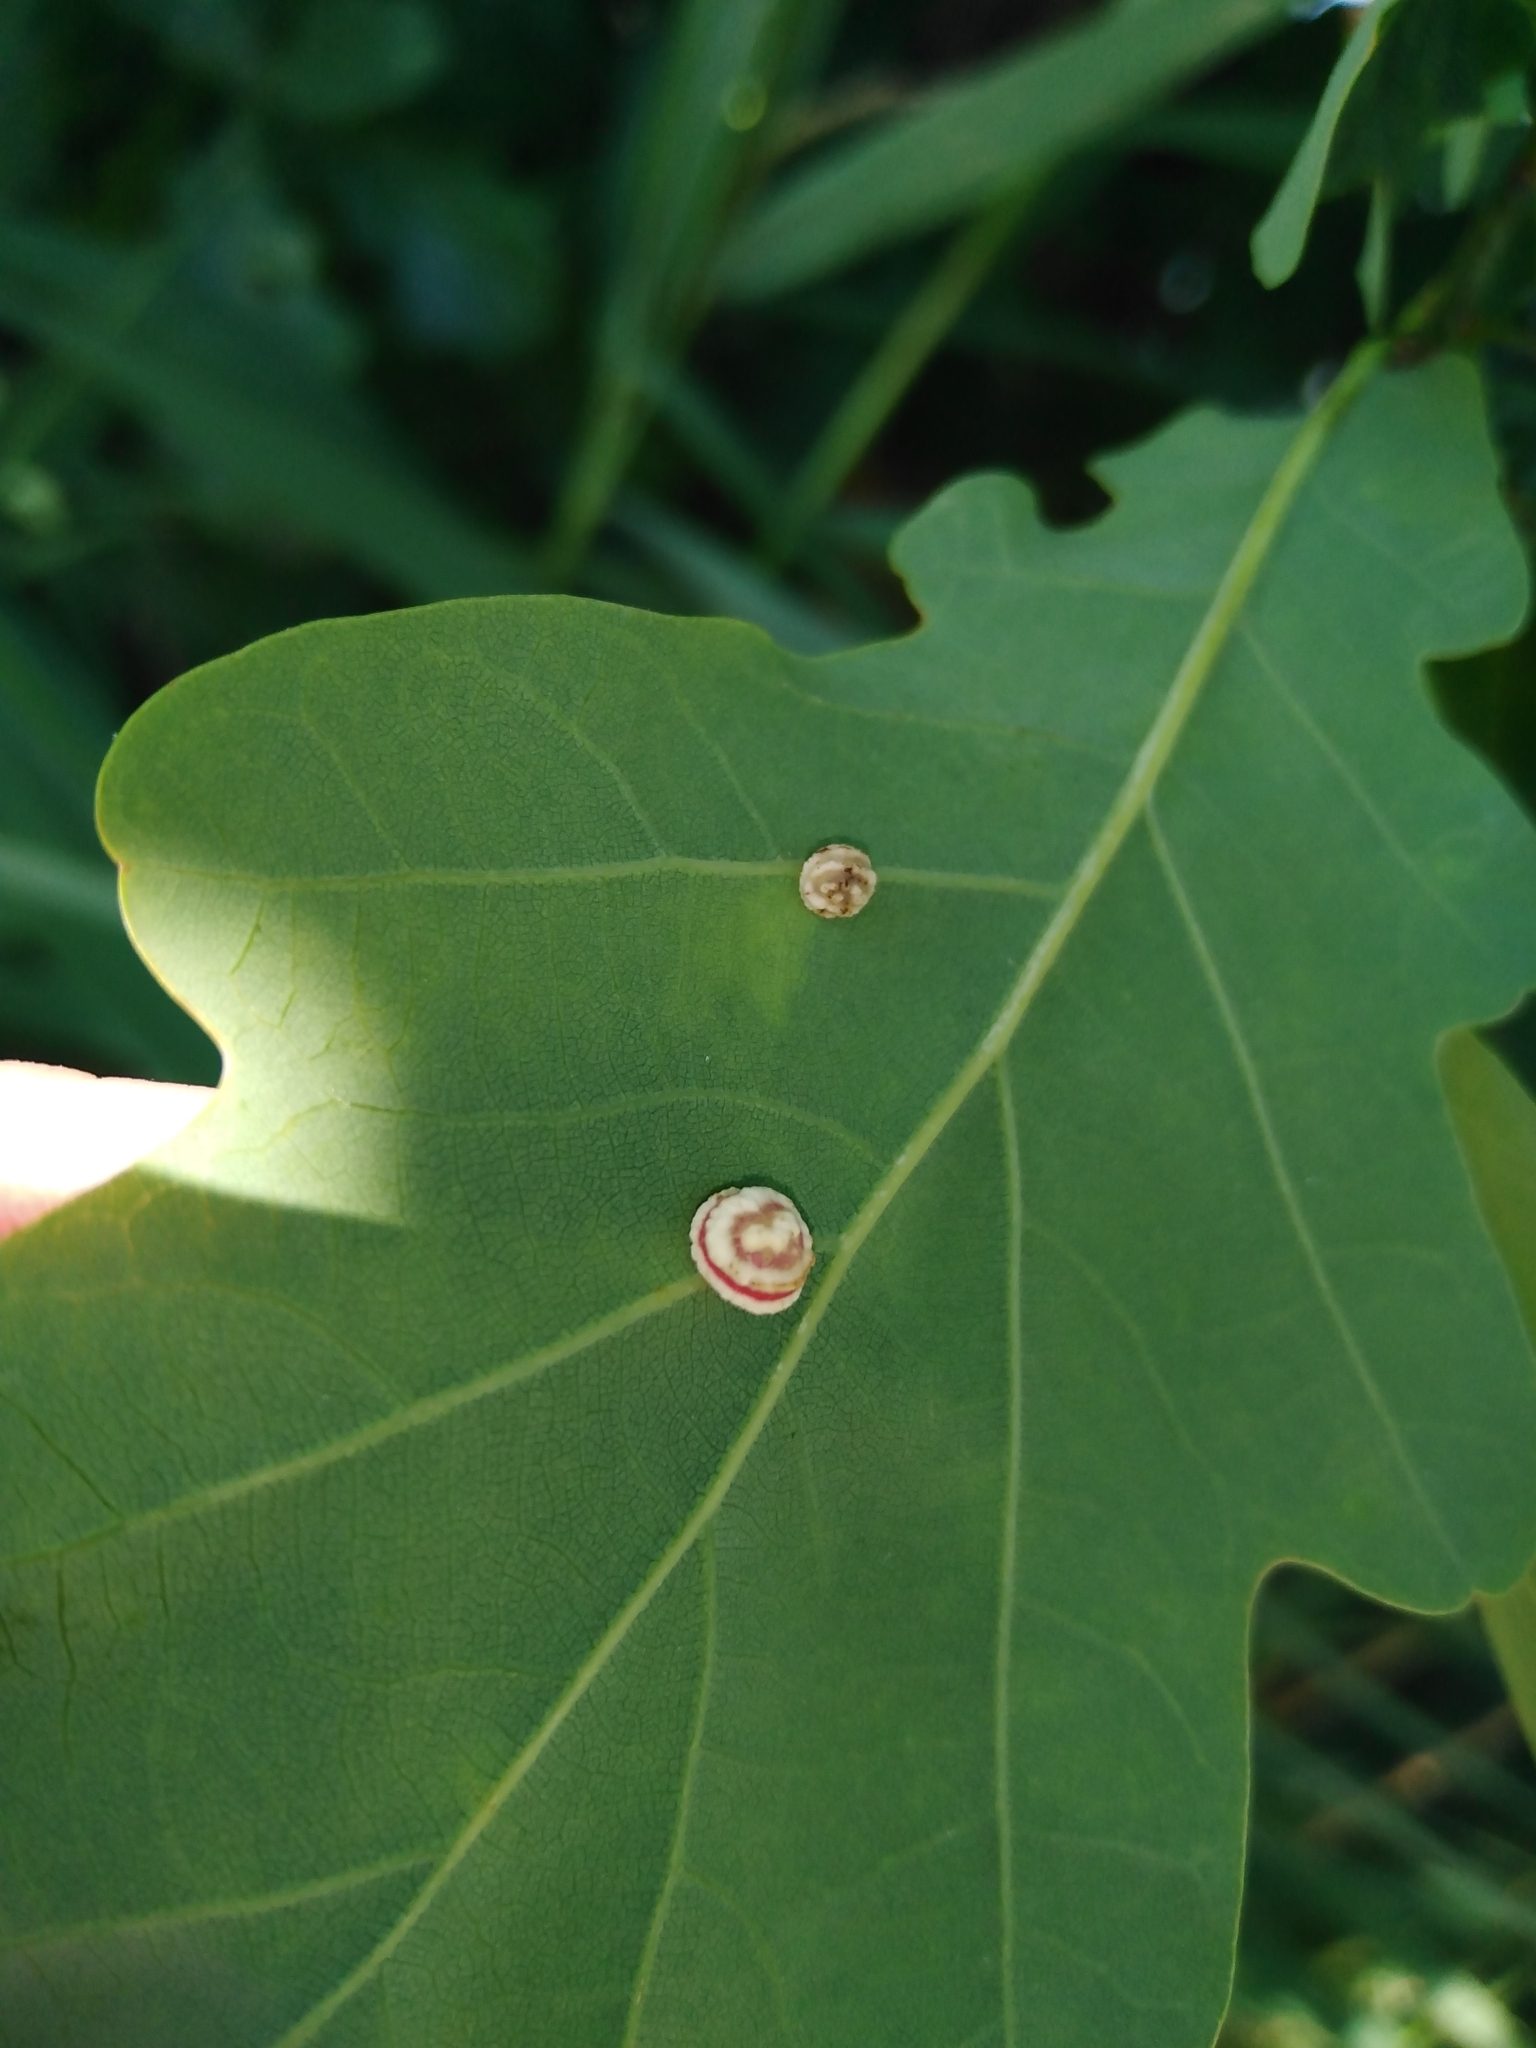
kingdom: Animalia
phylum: Arthropoda
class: Insecta
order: Hymenoptera
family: Cynipidae
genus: Cynips
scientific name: Cynips longiventris
